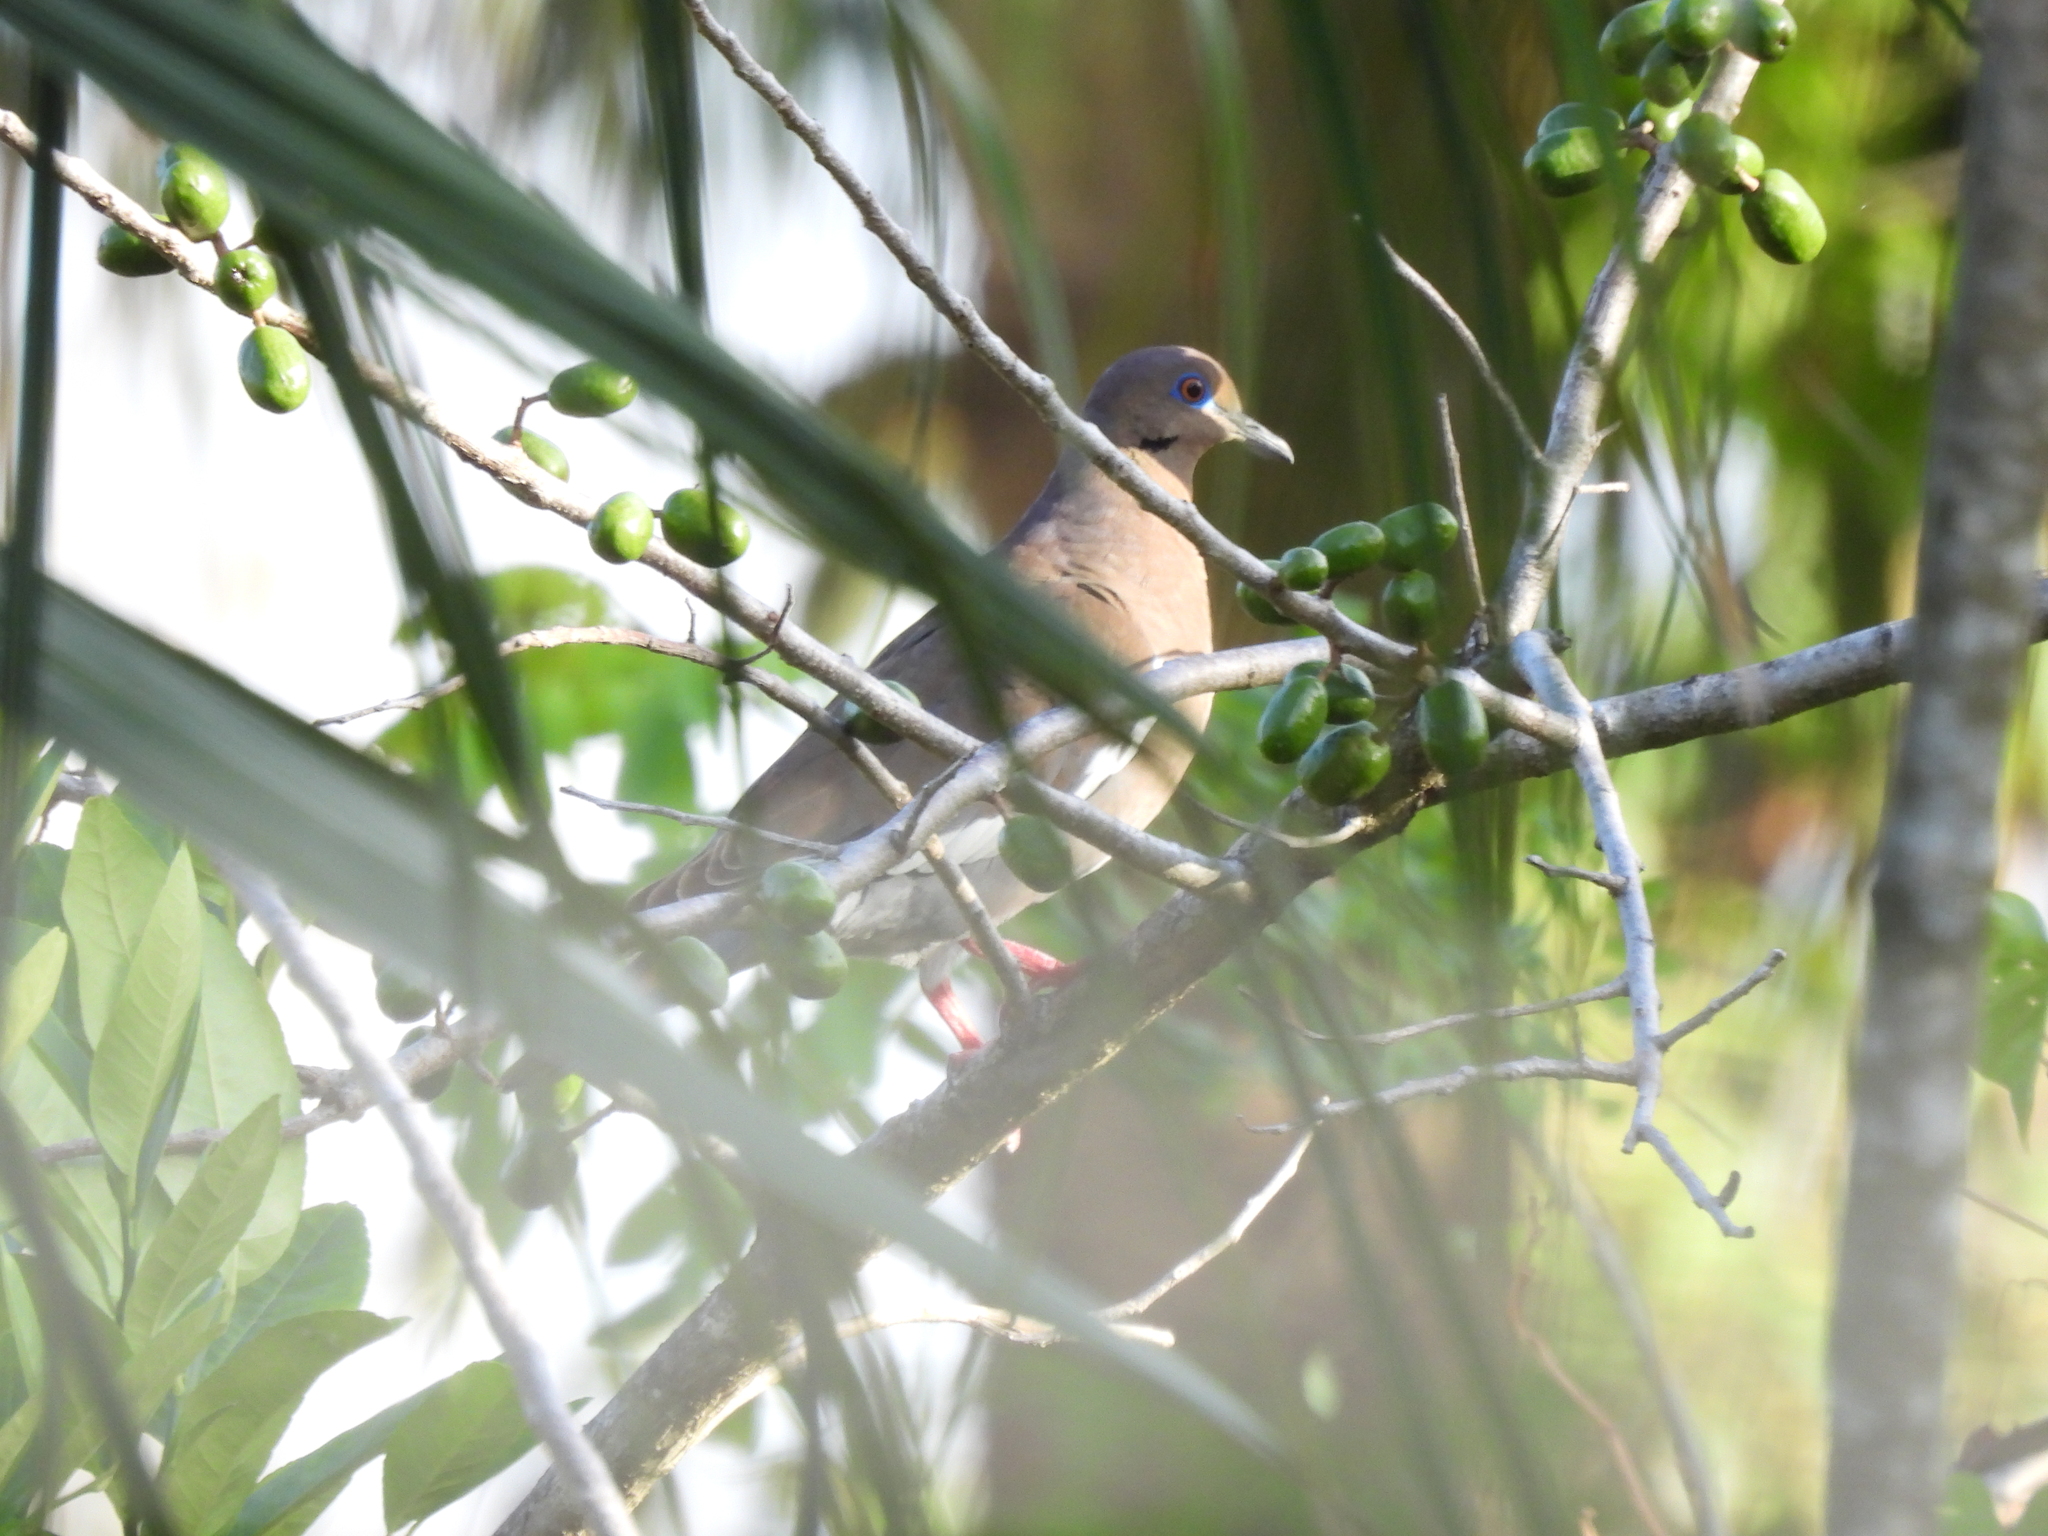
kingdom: Animalia
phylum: Chordata
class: Aves
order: Columbiformes
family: Columbidae
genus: Zenaida
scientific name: Zenaida asiatica
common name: White-winged dove
